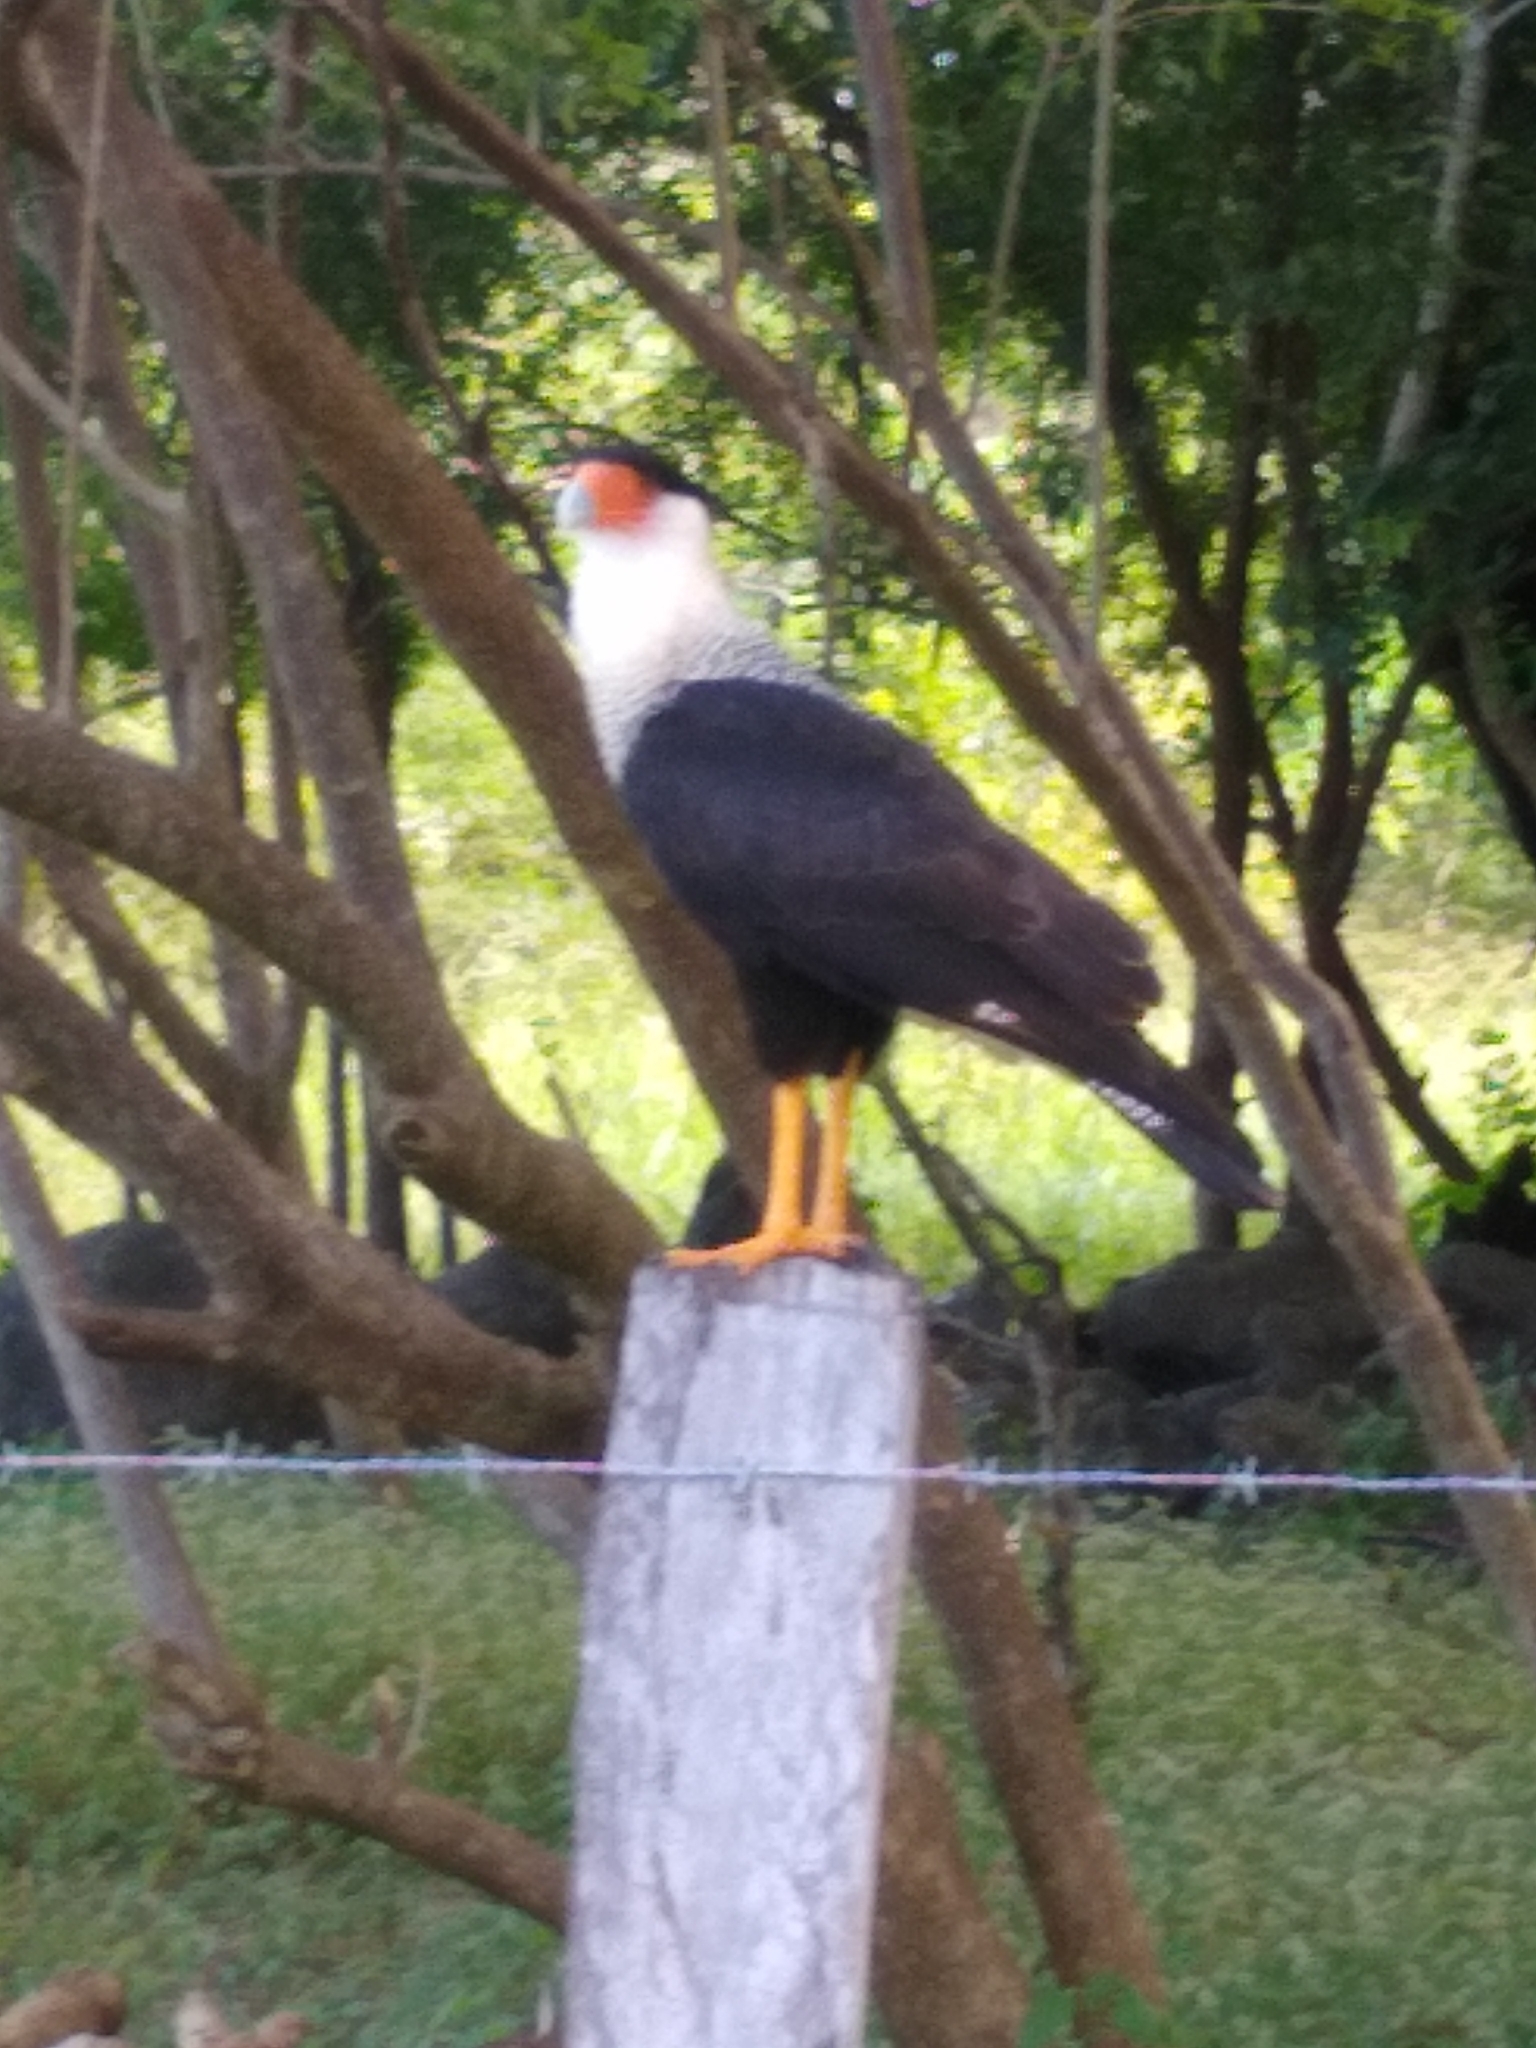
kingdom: Animalia
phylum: Chordata
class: Aves
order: Falconiformes
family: Falconidae
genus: Caracara
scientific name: Caracara plancus
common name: Southern caracara
